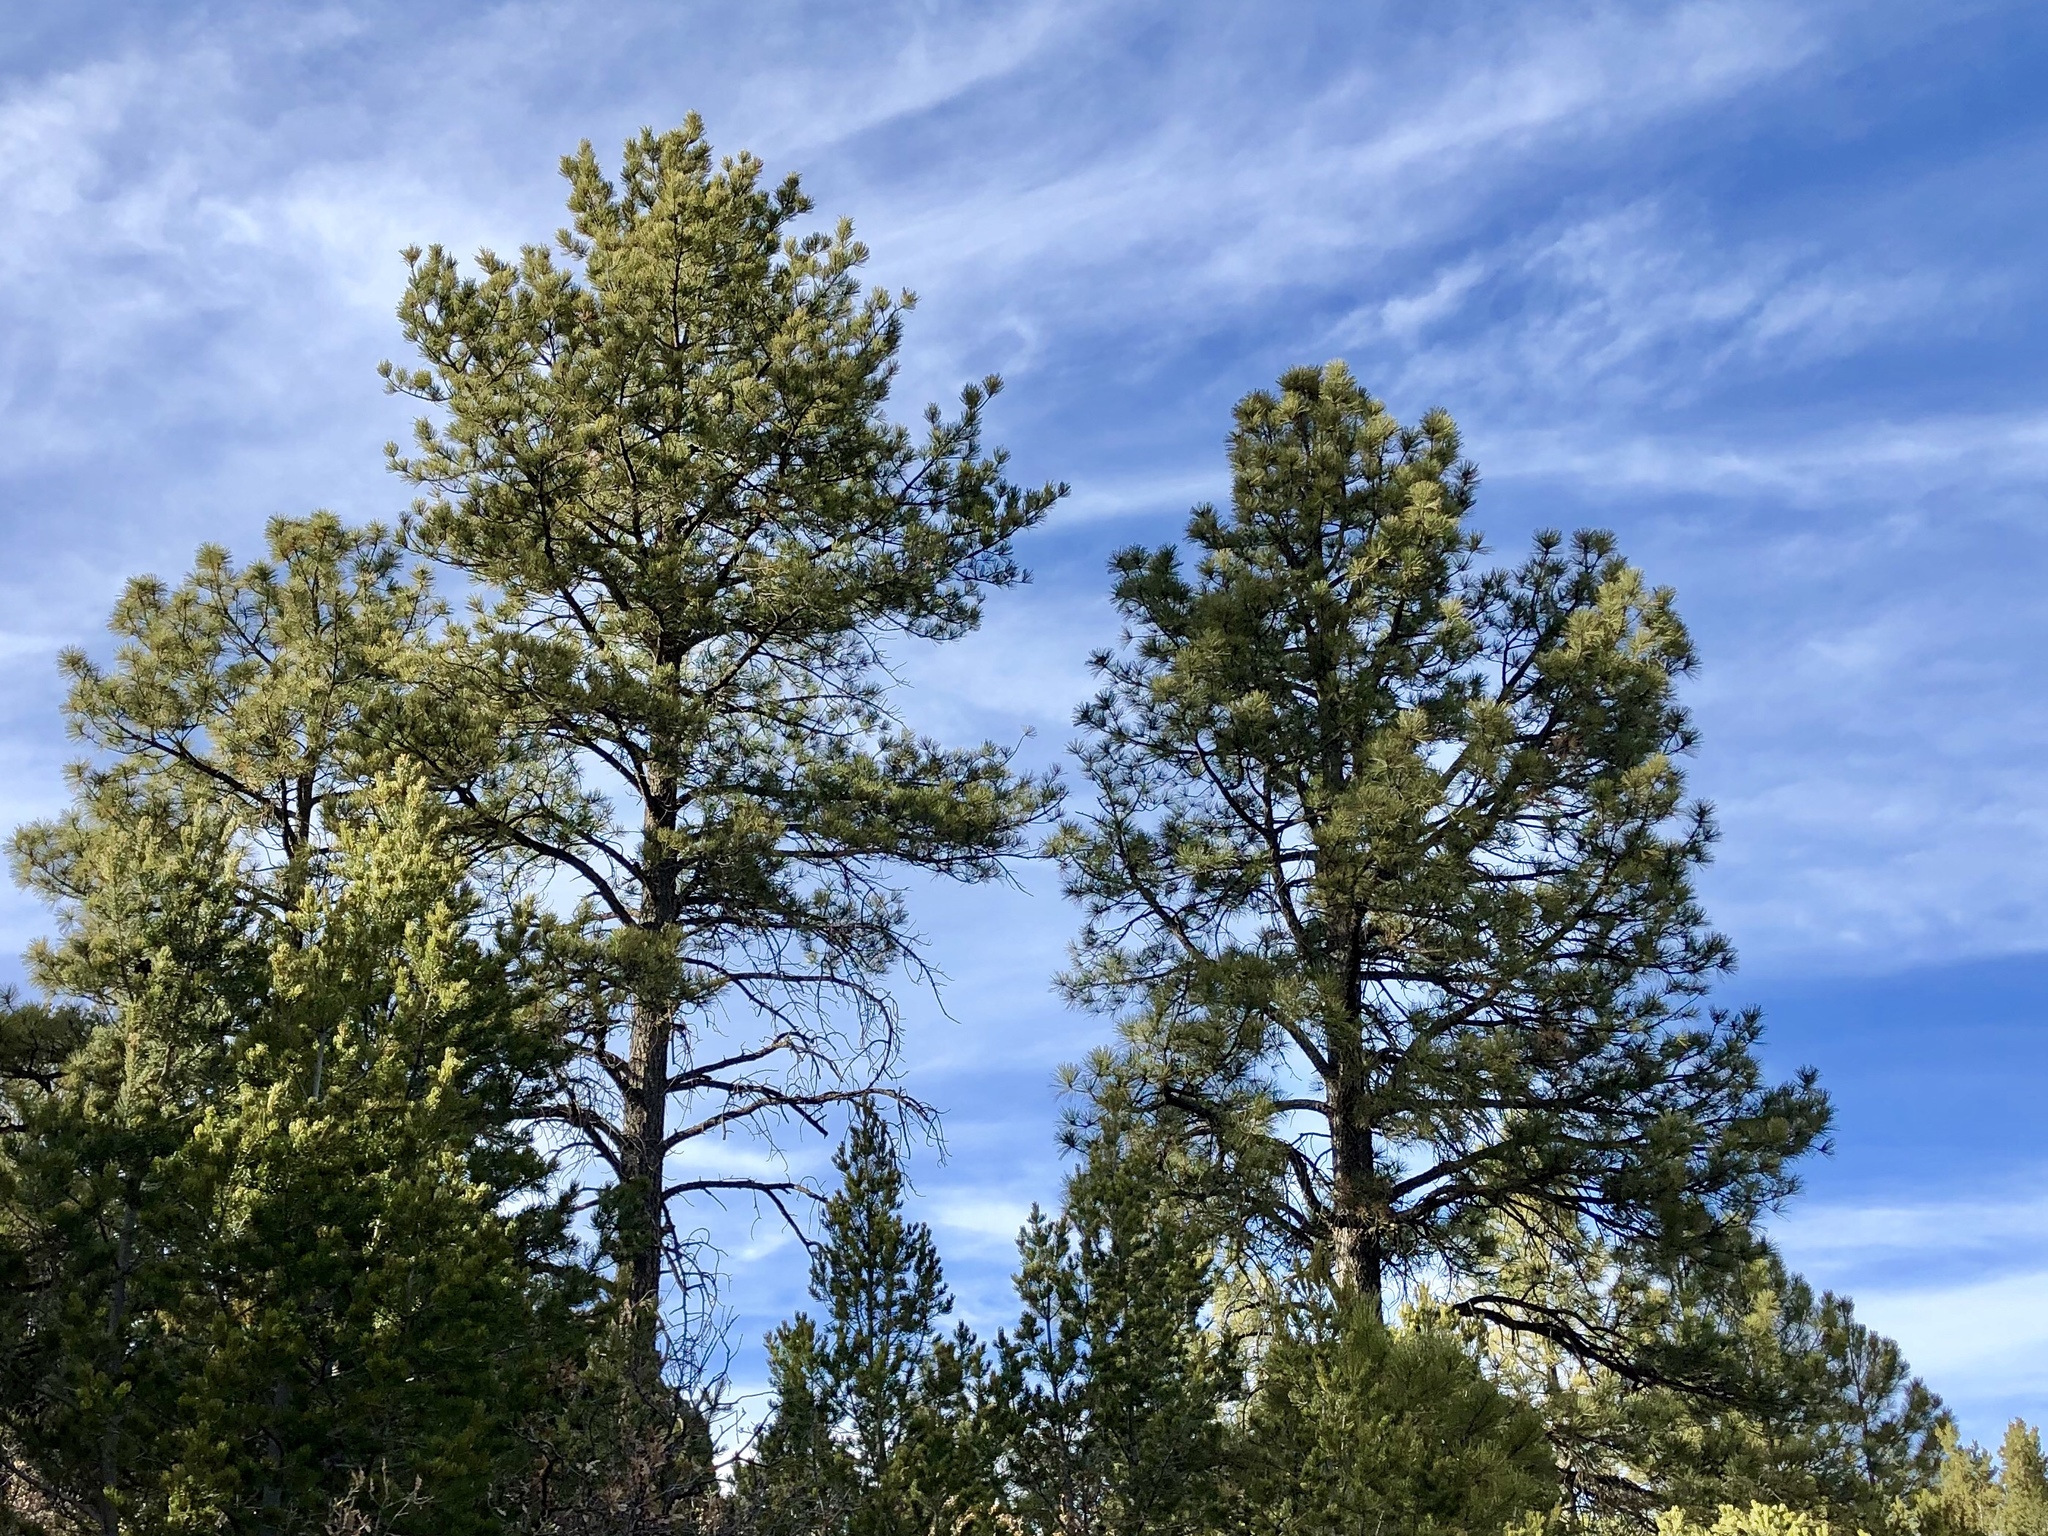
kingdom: Plantae
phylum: Tracheophyta
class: Pinopsida
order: Pinales
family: Pinaceae
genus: Pinus
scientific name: Pinus ponderosa
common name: Western yellow-pine
